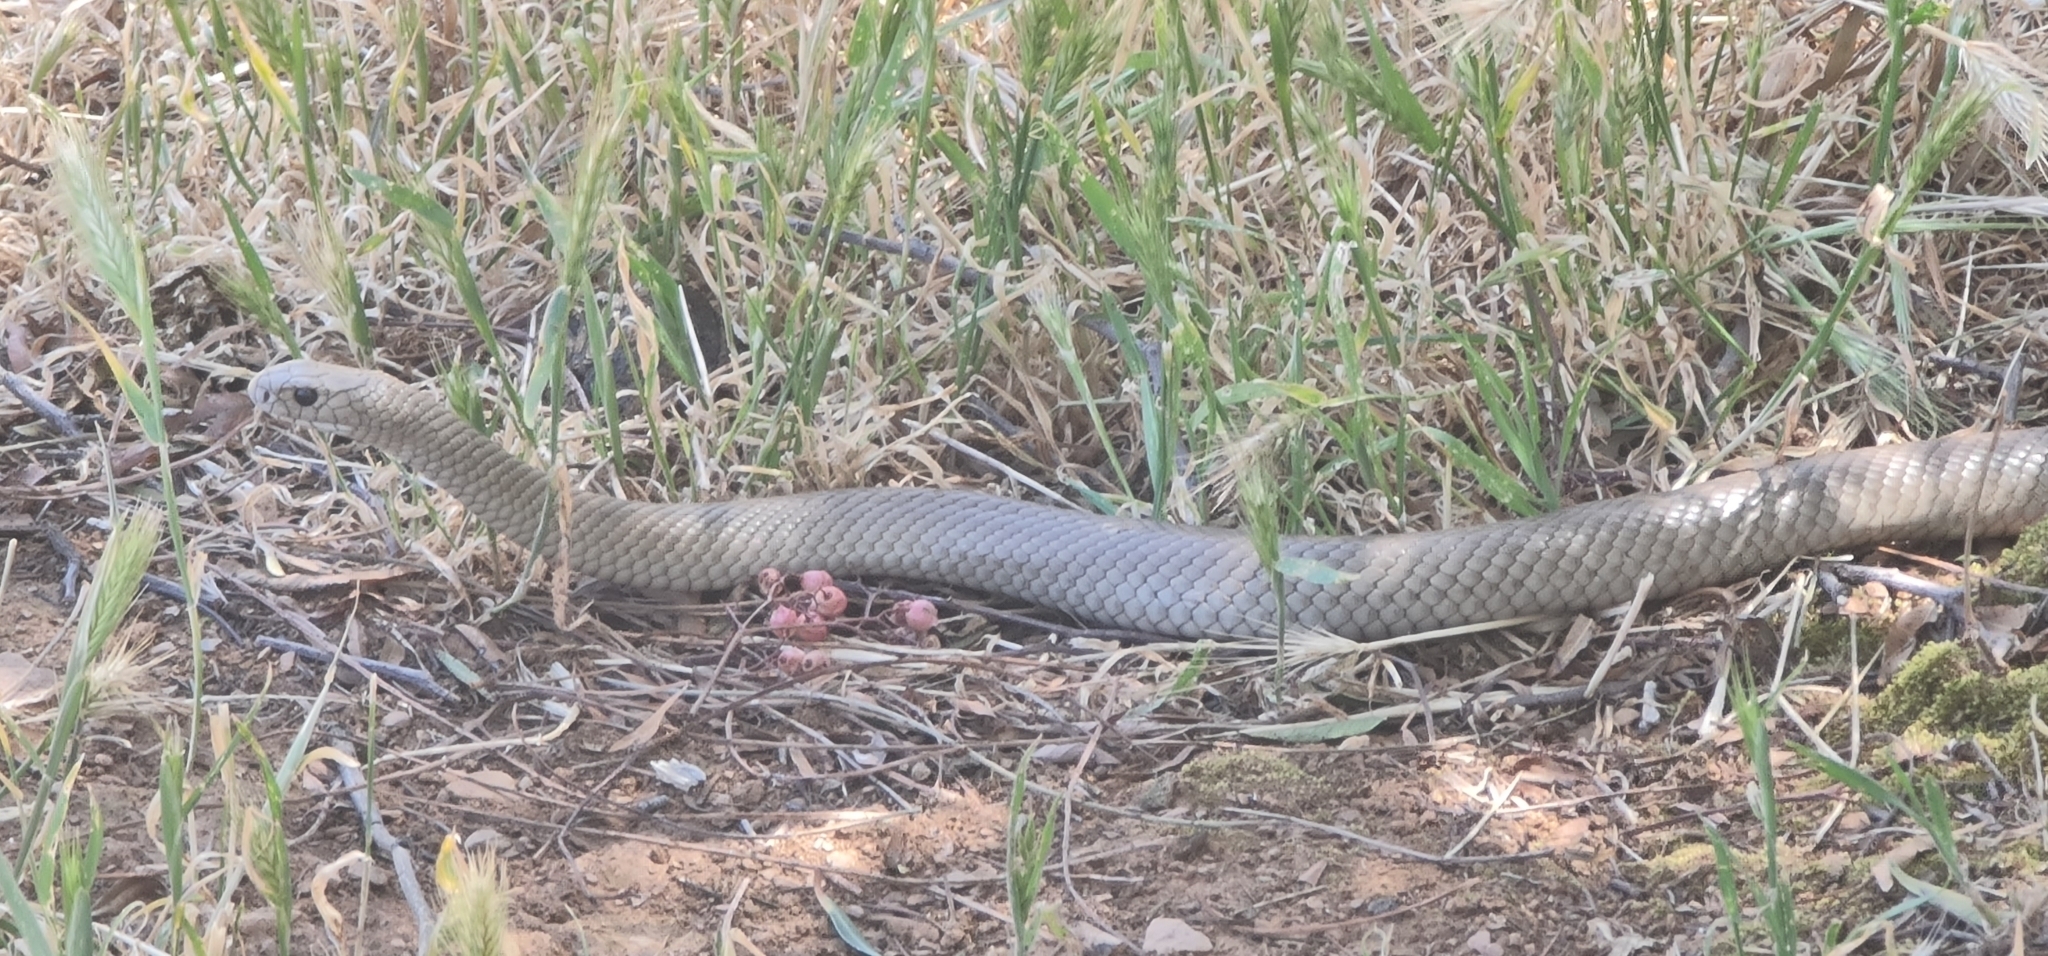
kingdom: Animalia
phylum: Chordata
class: Squamata
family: Elapidae
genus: Pseudonaja
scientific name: Pseudonaja textilis
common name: Eastern brown snake
